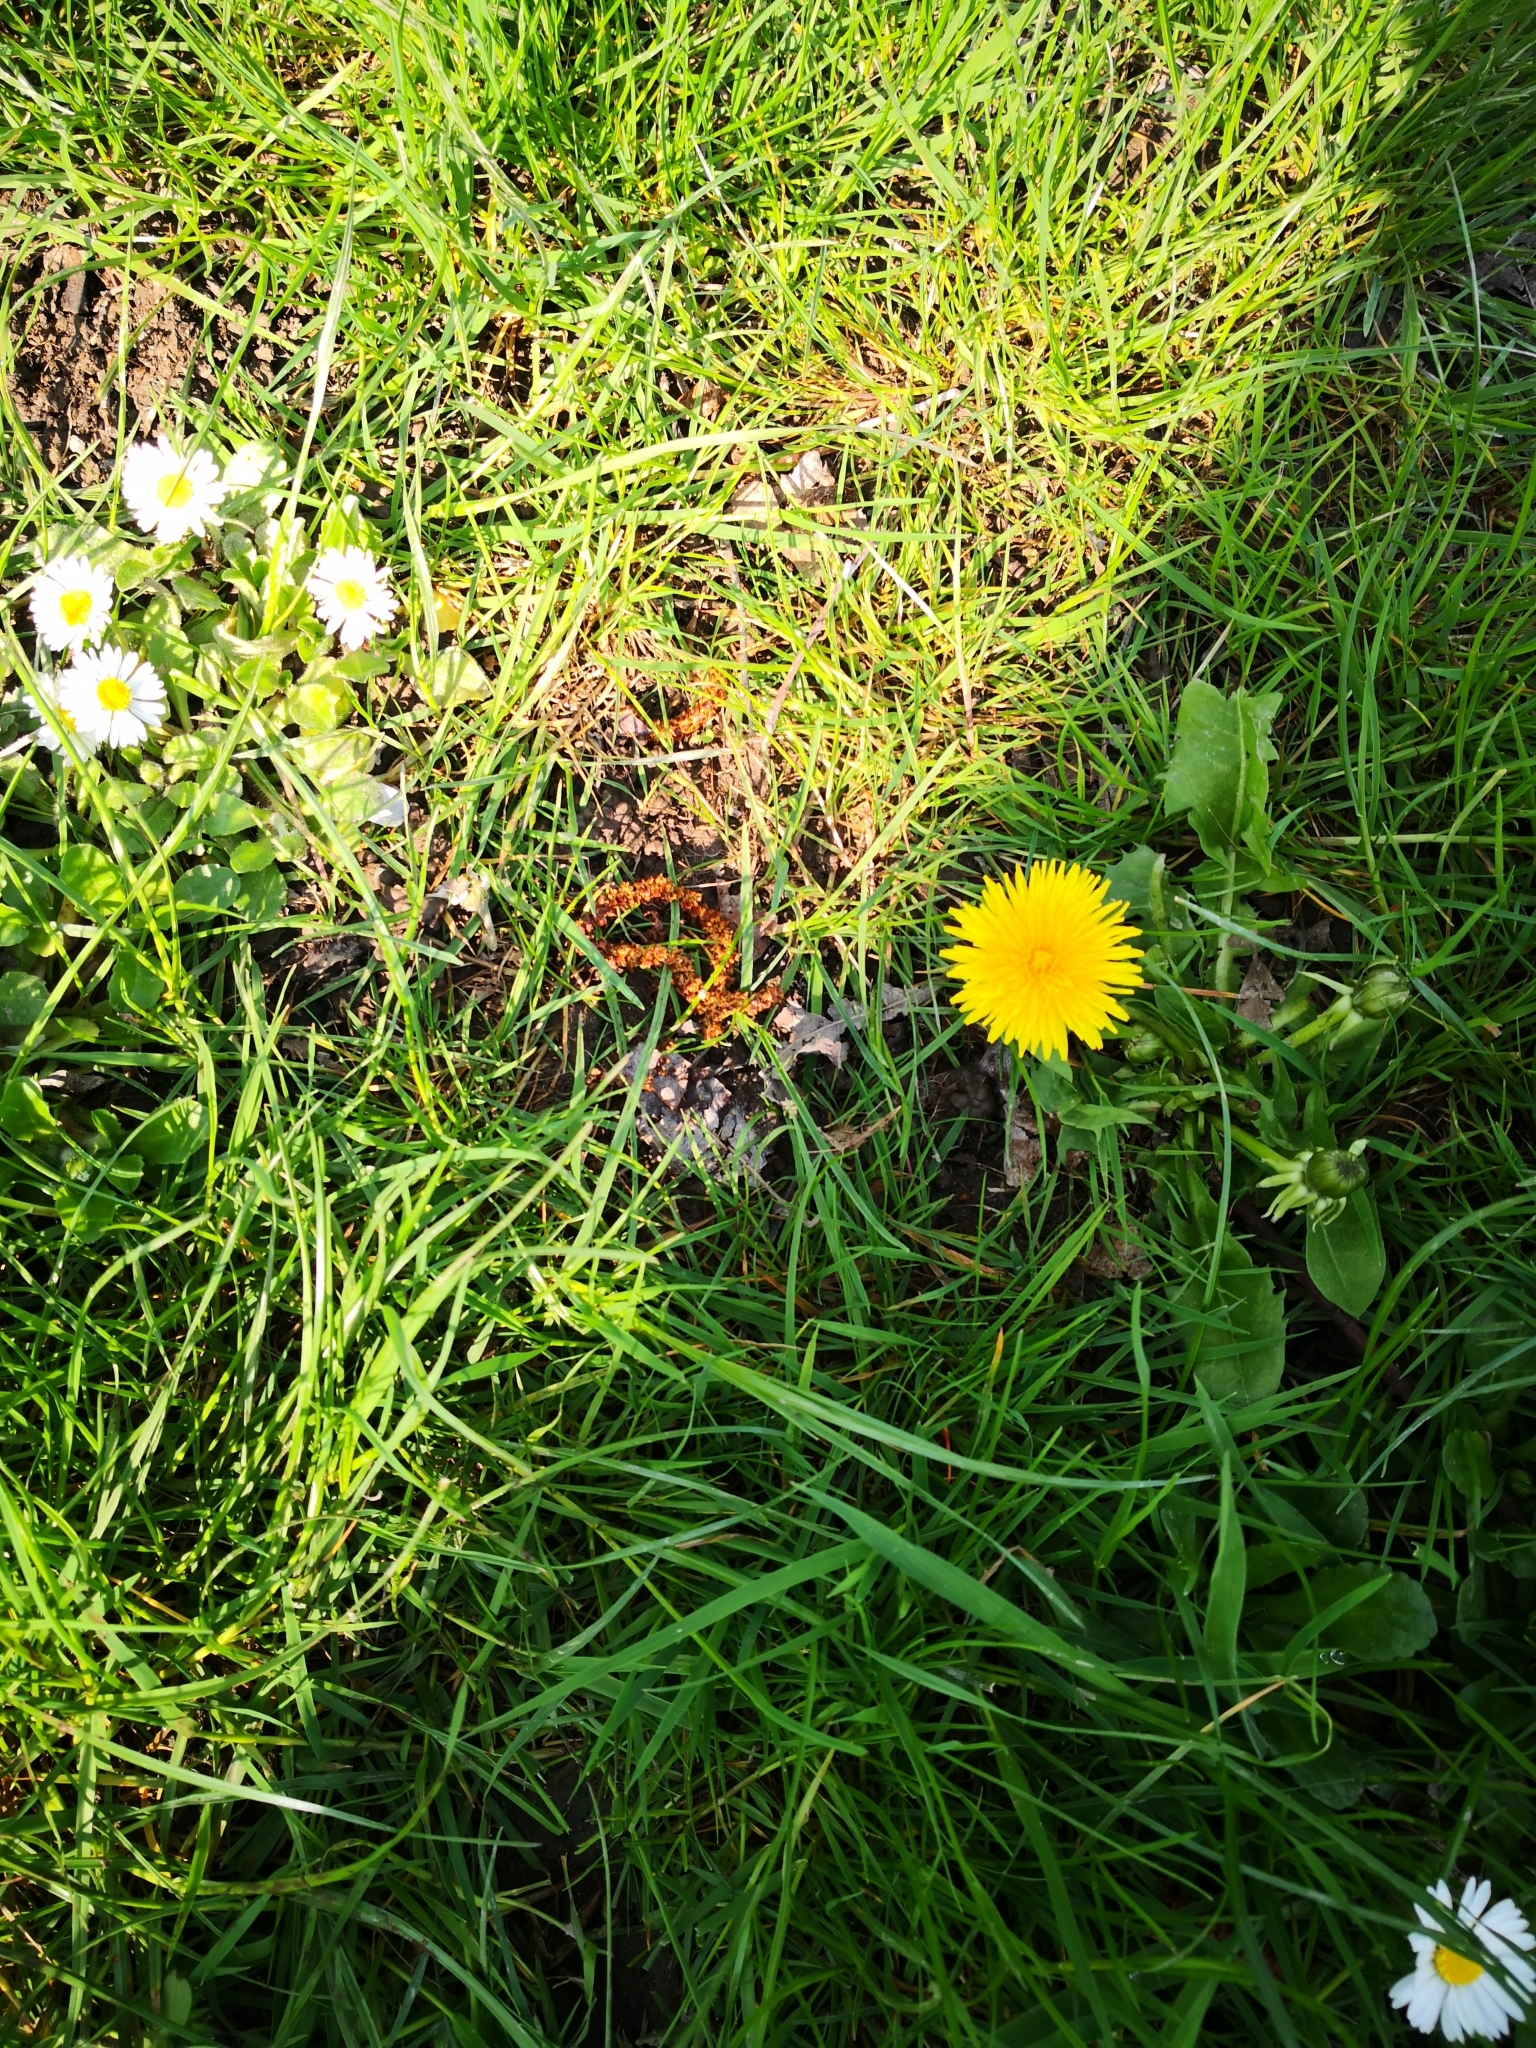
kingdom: Plantae
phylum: Tracheophyta
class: Magnoliopsida
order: Asterales
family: Asteraceae
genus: Taraxacum
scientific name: Taraxacum officinale
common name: Common dandelion
